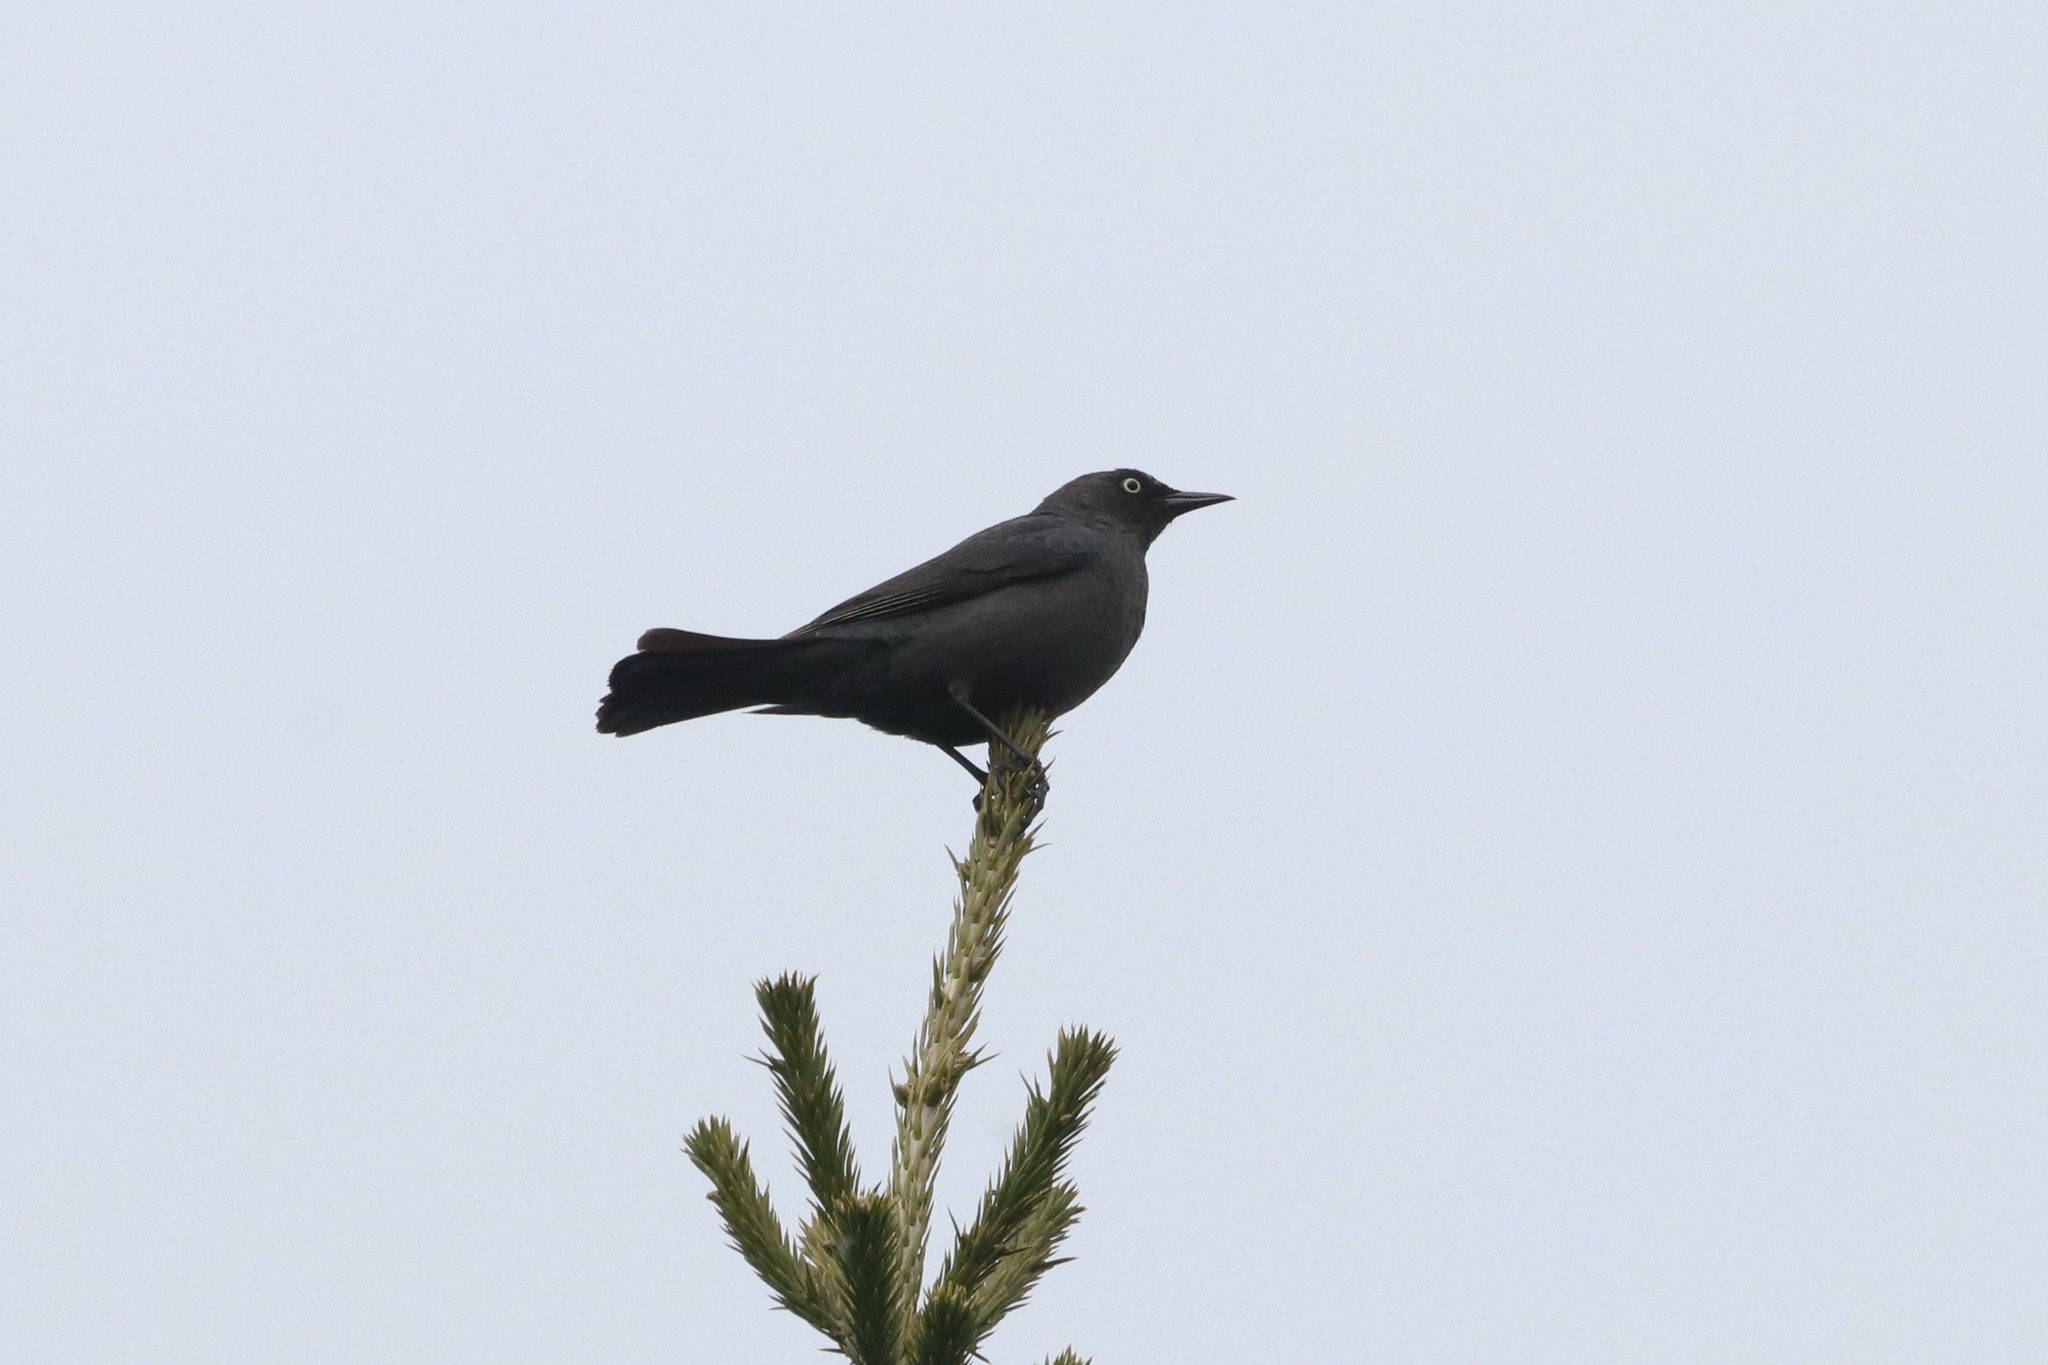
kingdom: Animalia
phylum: Chordata
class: Aves
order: Passeriformes
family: Icteridae
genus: Euphagus
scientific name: Euphagus carolinus
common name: Rusty blackbird
